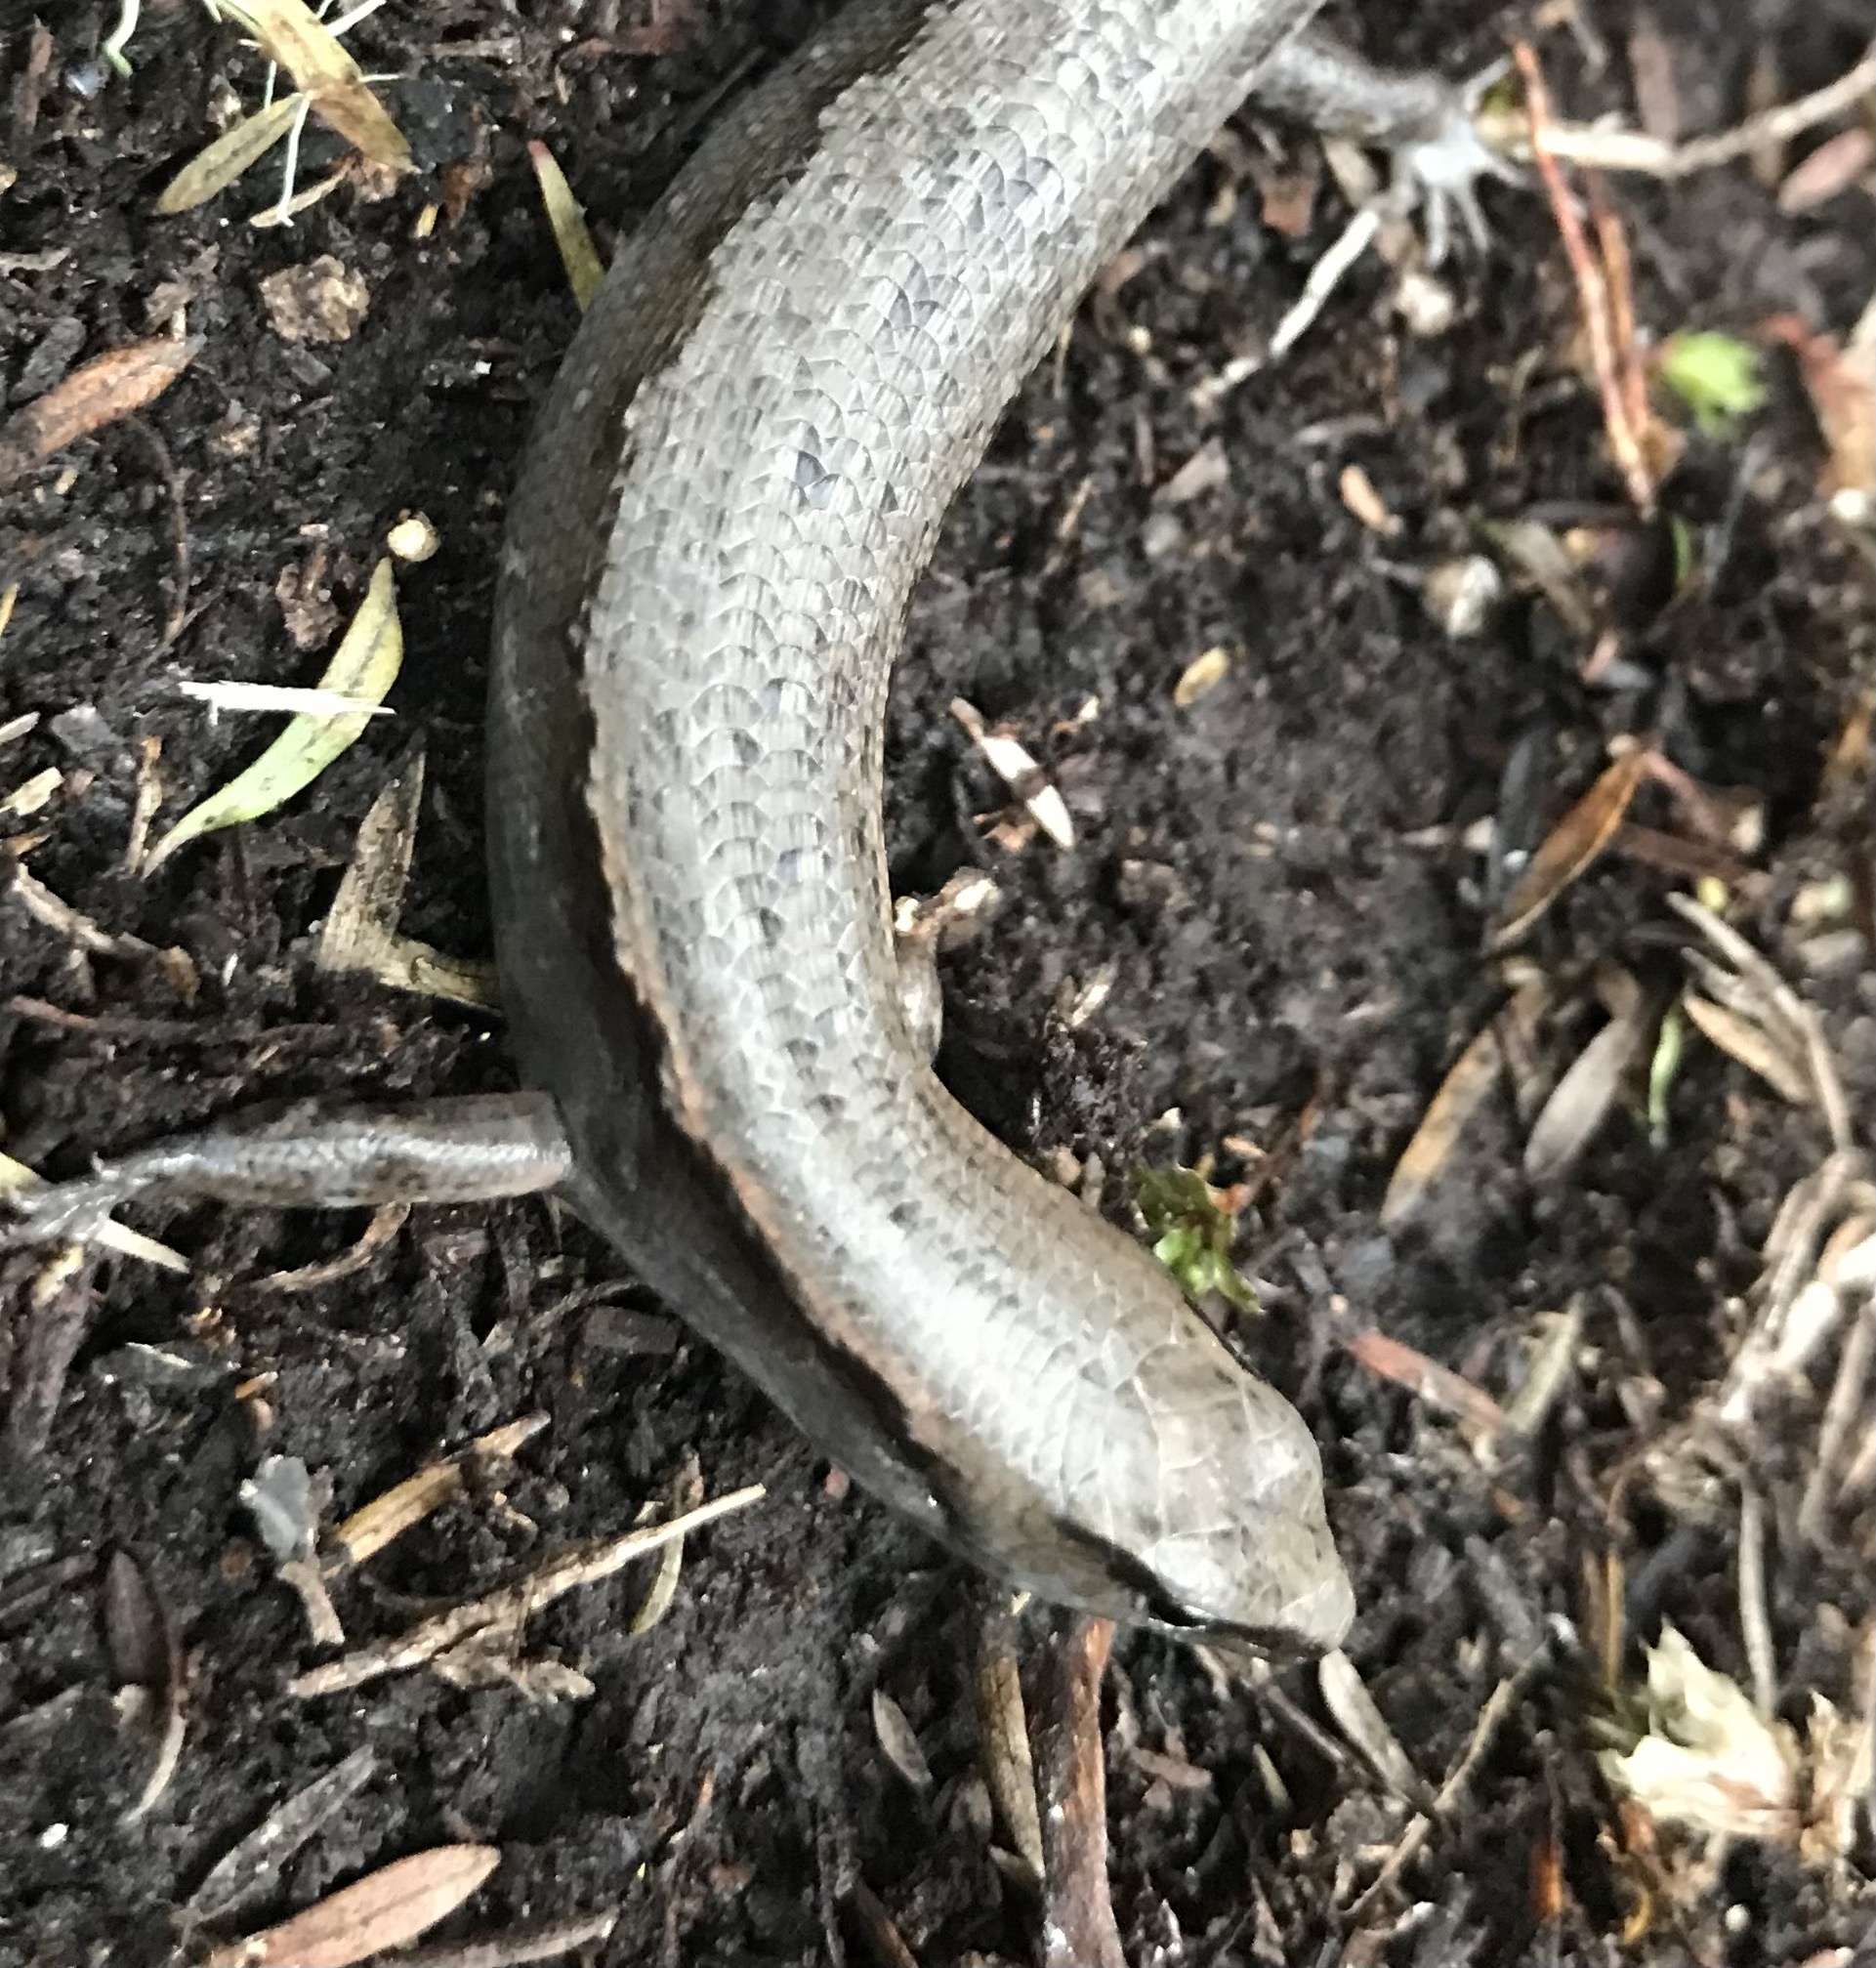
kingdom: Animalia
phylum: Chordata
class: Squamata
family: Scincidae
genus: Oligosoma
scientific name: Oligosoma ornatum
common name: Gray's ornate skink
